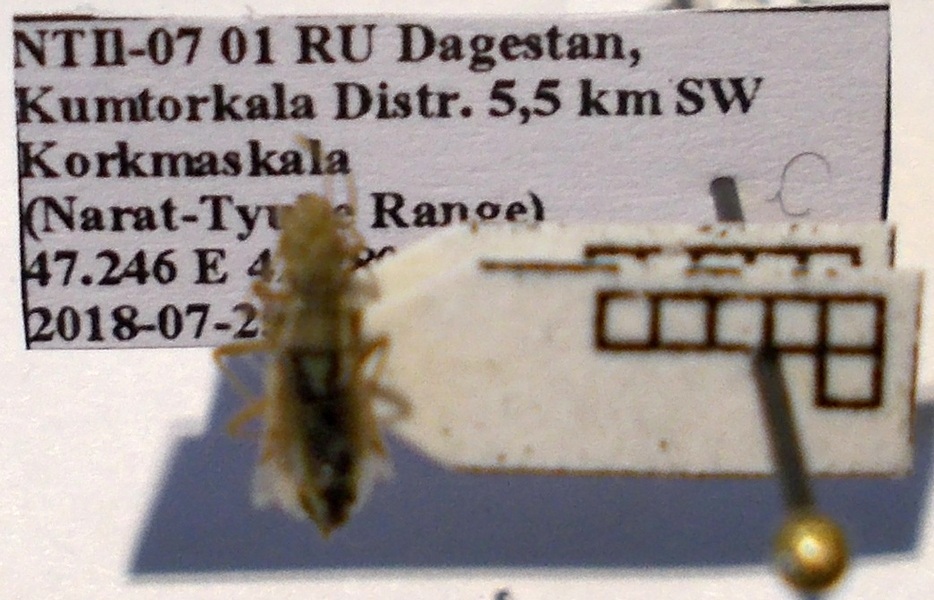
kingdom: Animalia
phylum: Arthropoda
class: Insecta
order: Hemiptera
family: Rhopalidae
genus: Agraphopus
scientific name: Agraphopus lethierryi
